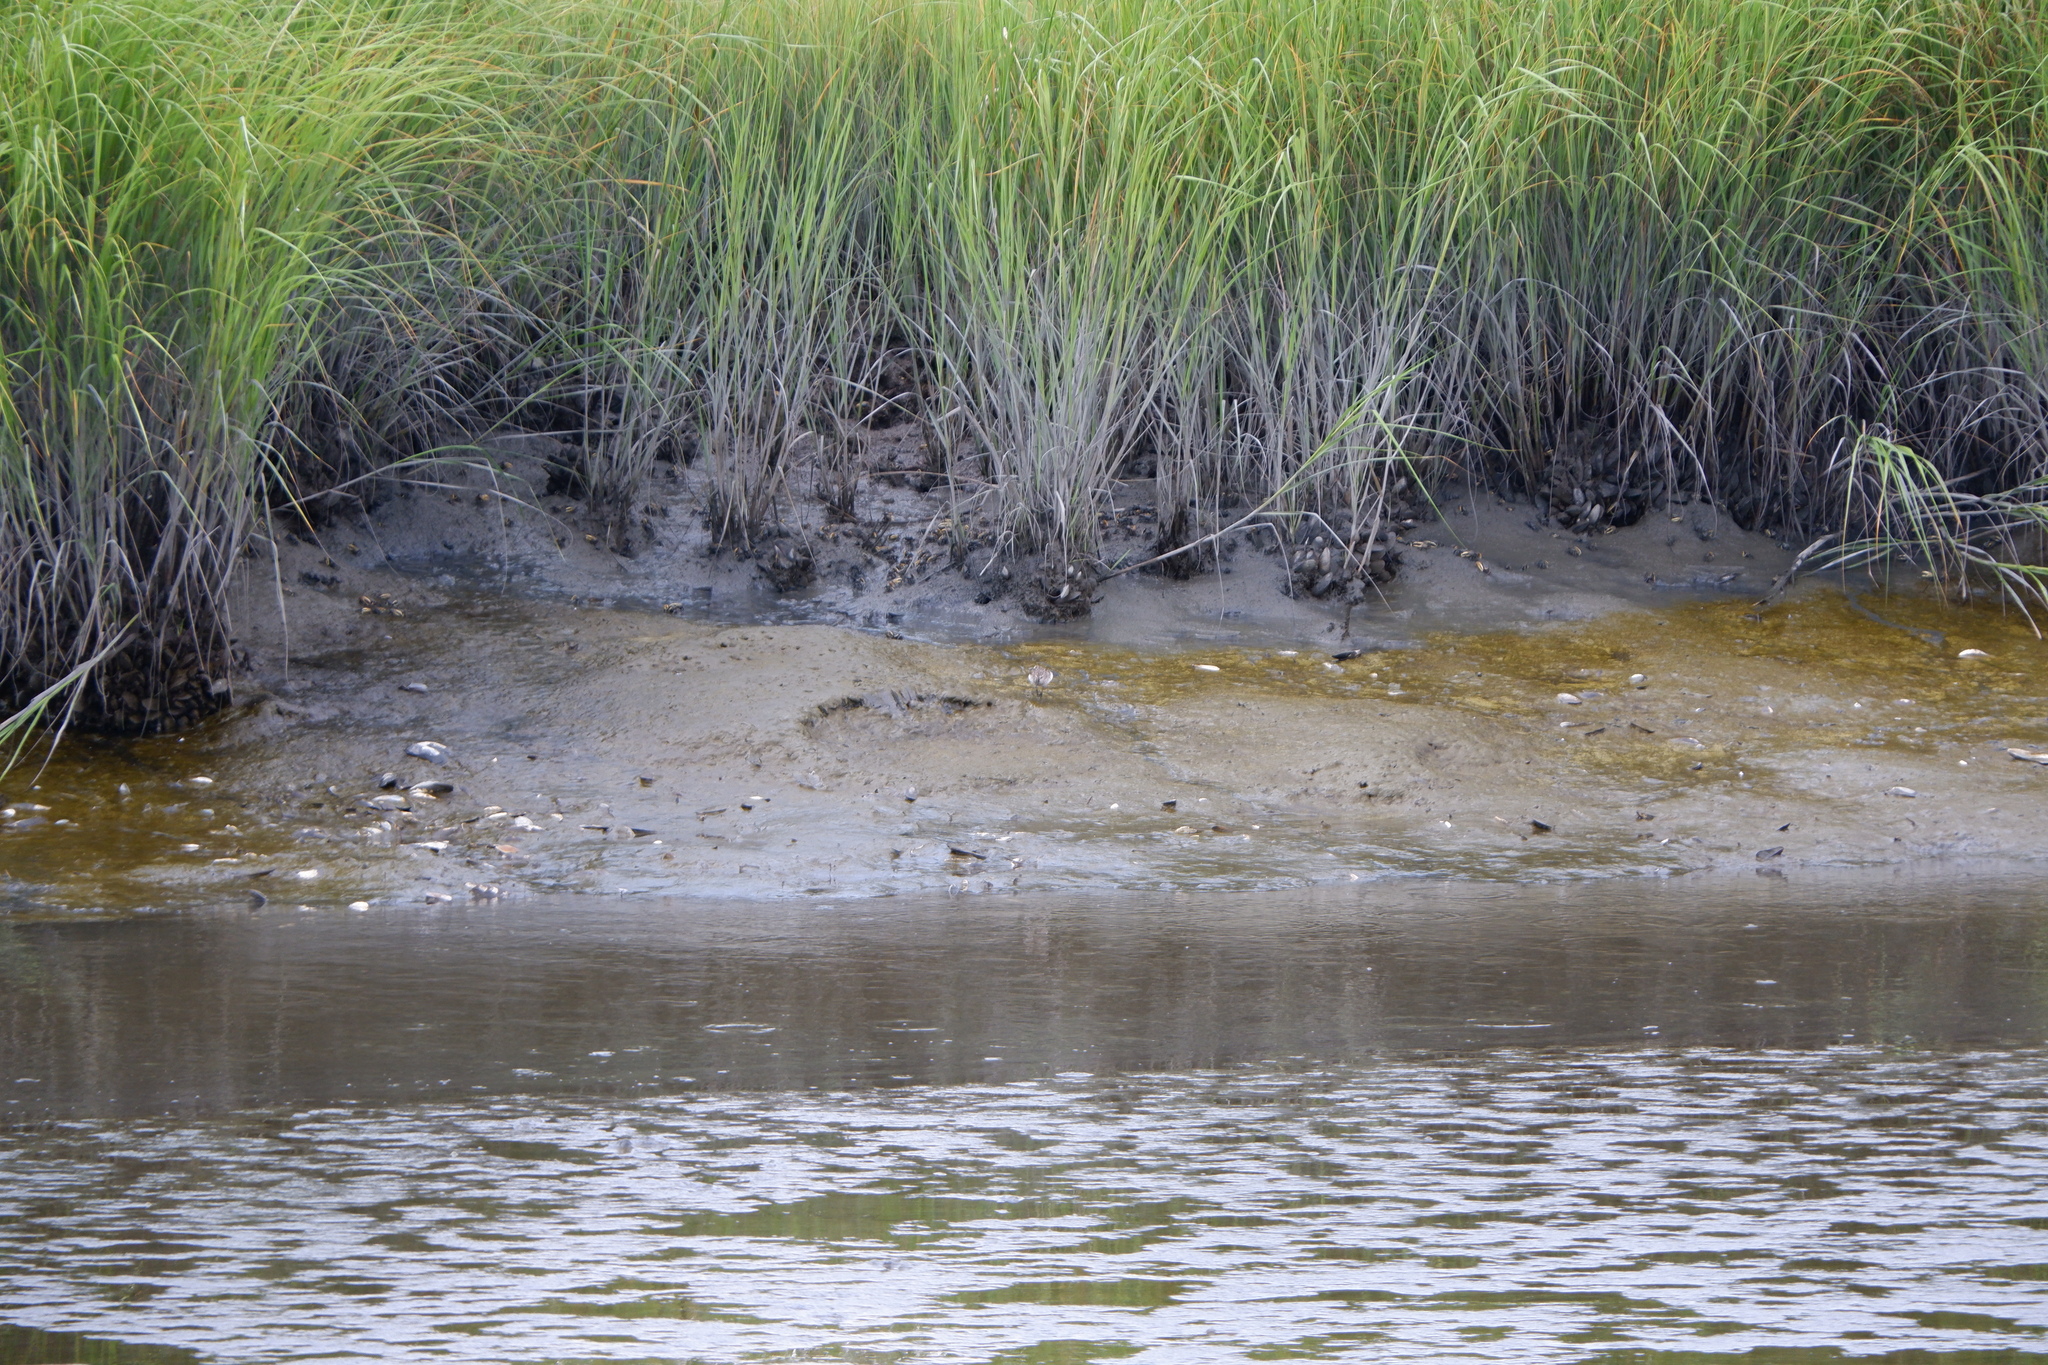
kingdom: Animalia
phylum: Mollusca
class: Bivalvia
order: Mytilida
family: Mytilidae
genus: Geukensia
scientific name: Geukensia demissa
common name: Ribbed mussel
